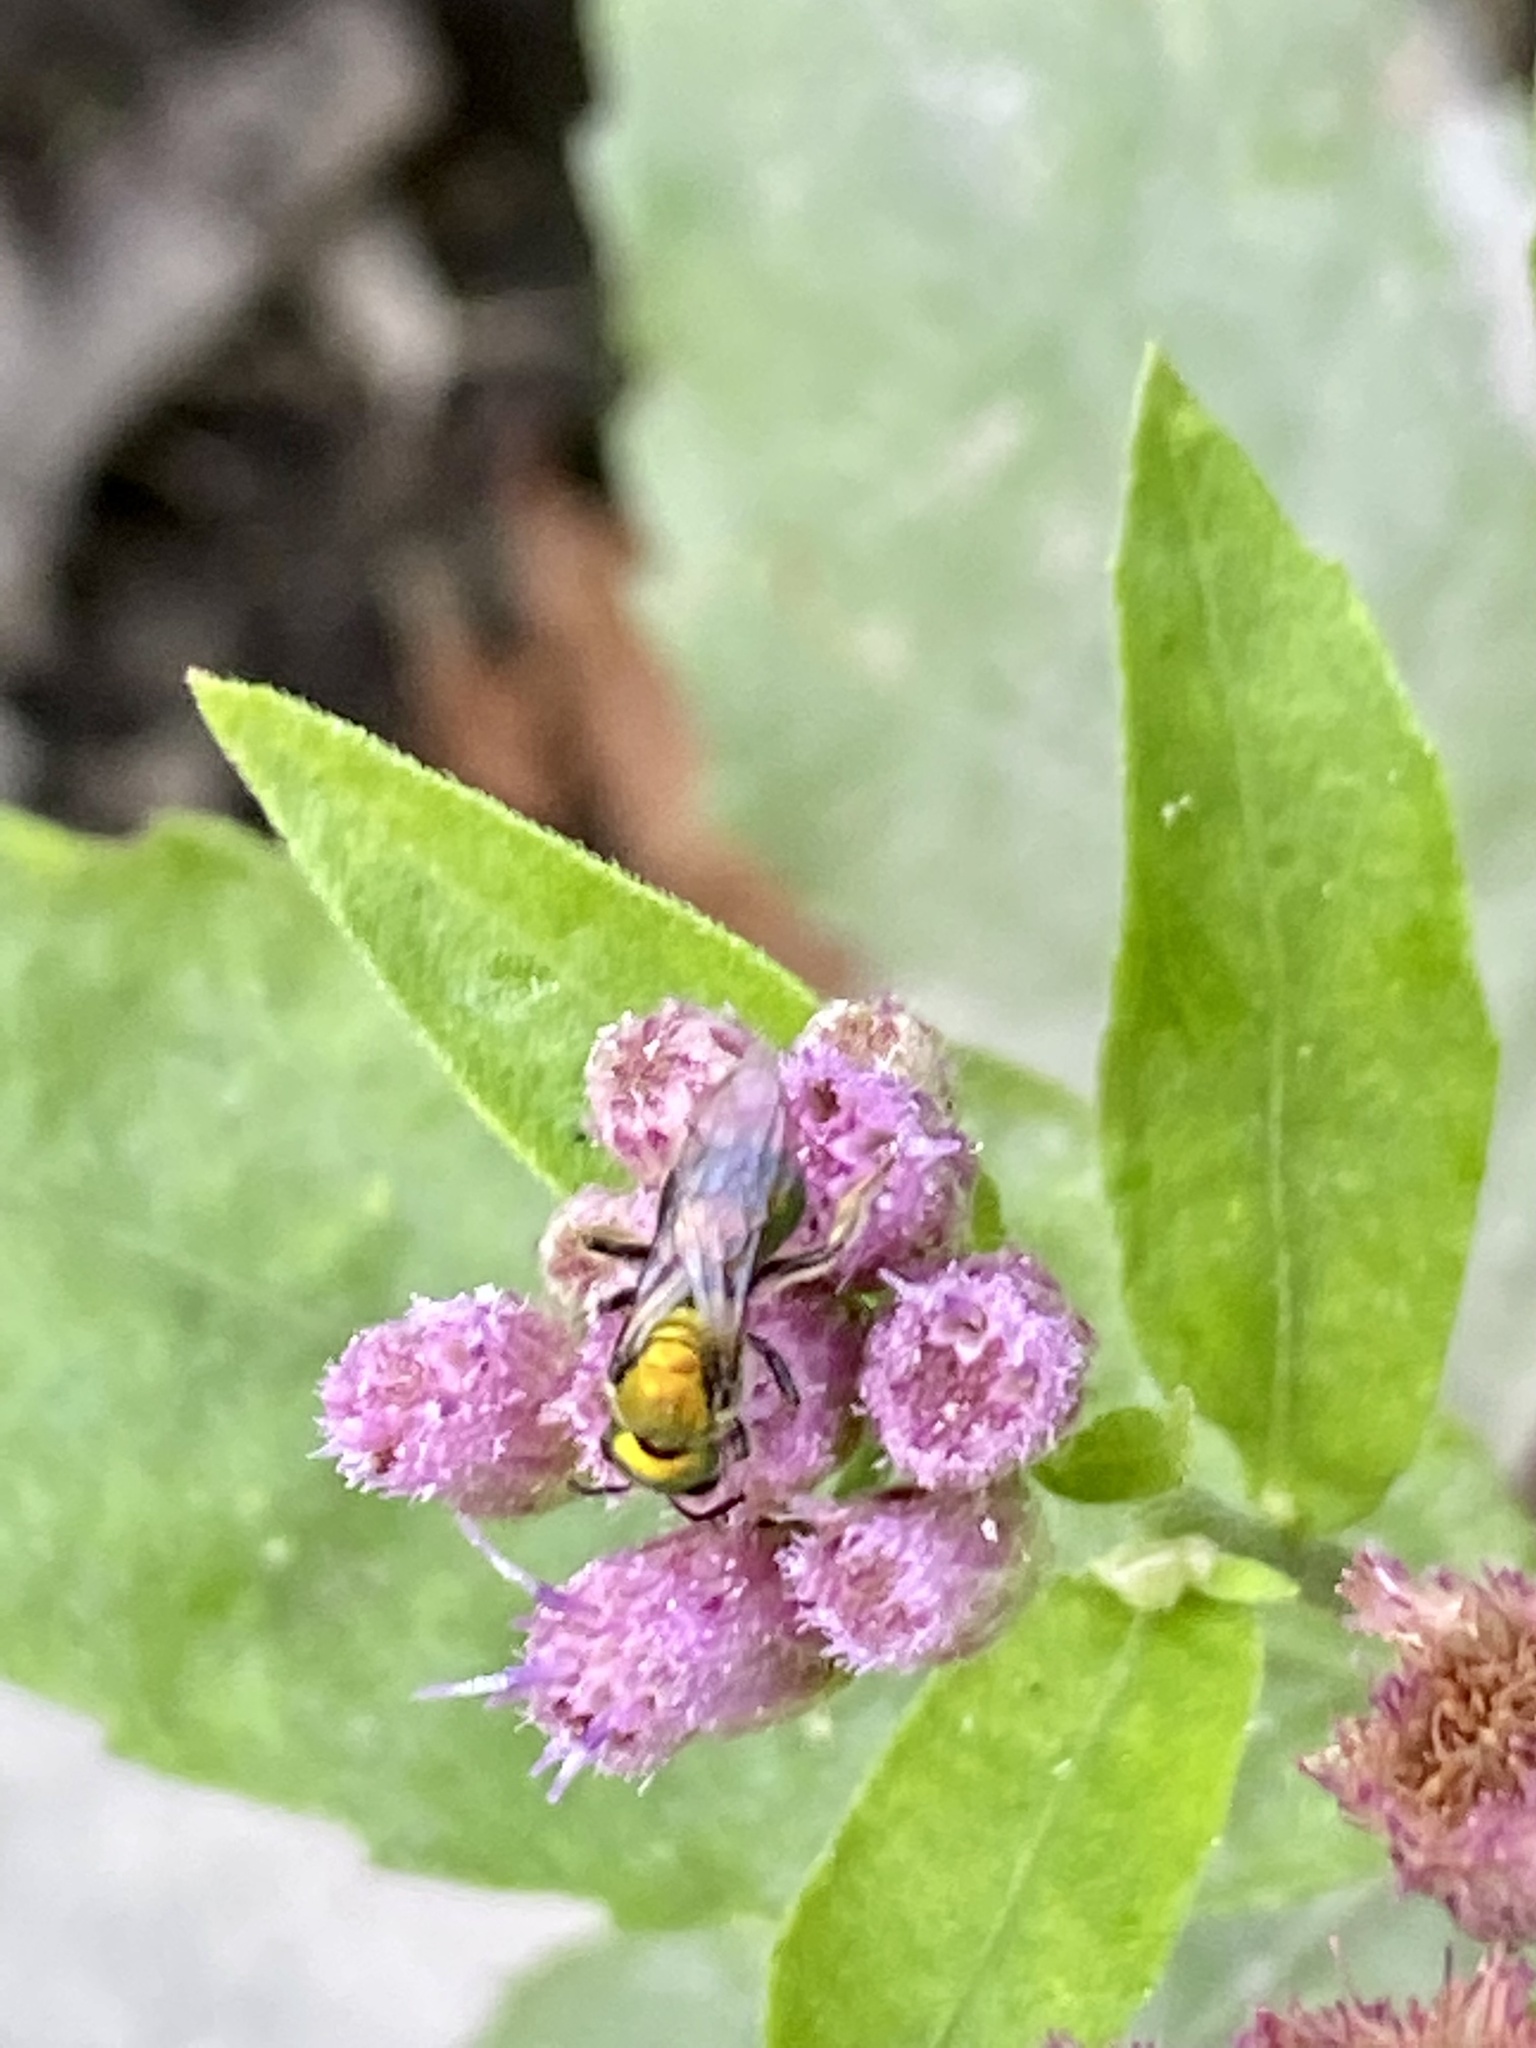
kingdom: Animalia
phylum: Arthropoda
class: Insecta
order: Hymenoptera
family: Halictidae
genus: Augochlora
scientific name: Augochlora pura
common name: Pure green sweat bee
